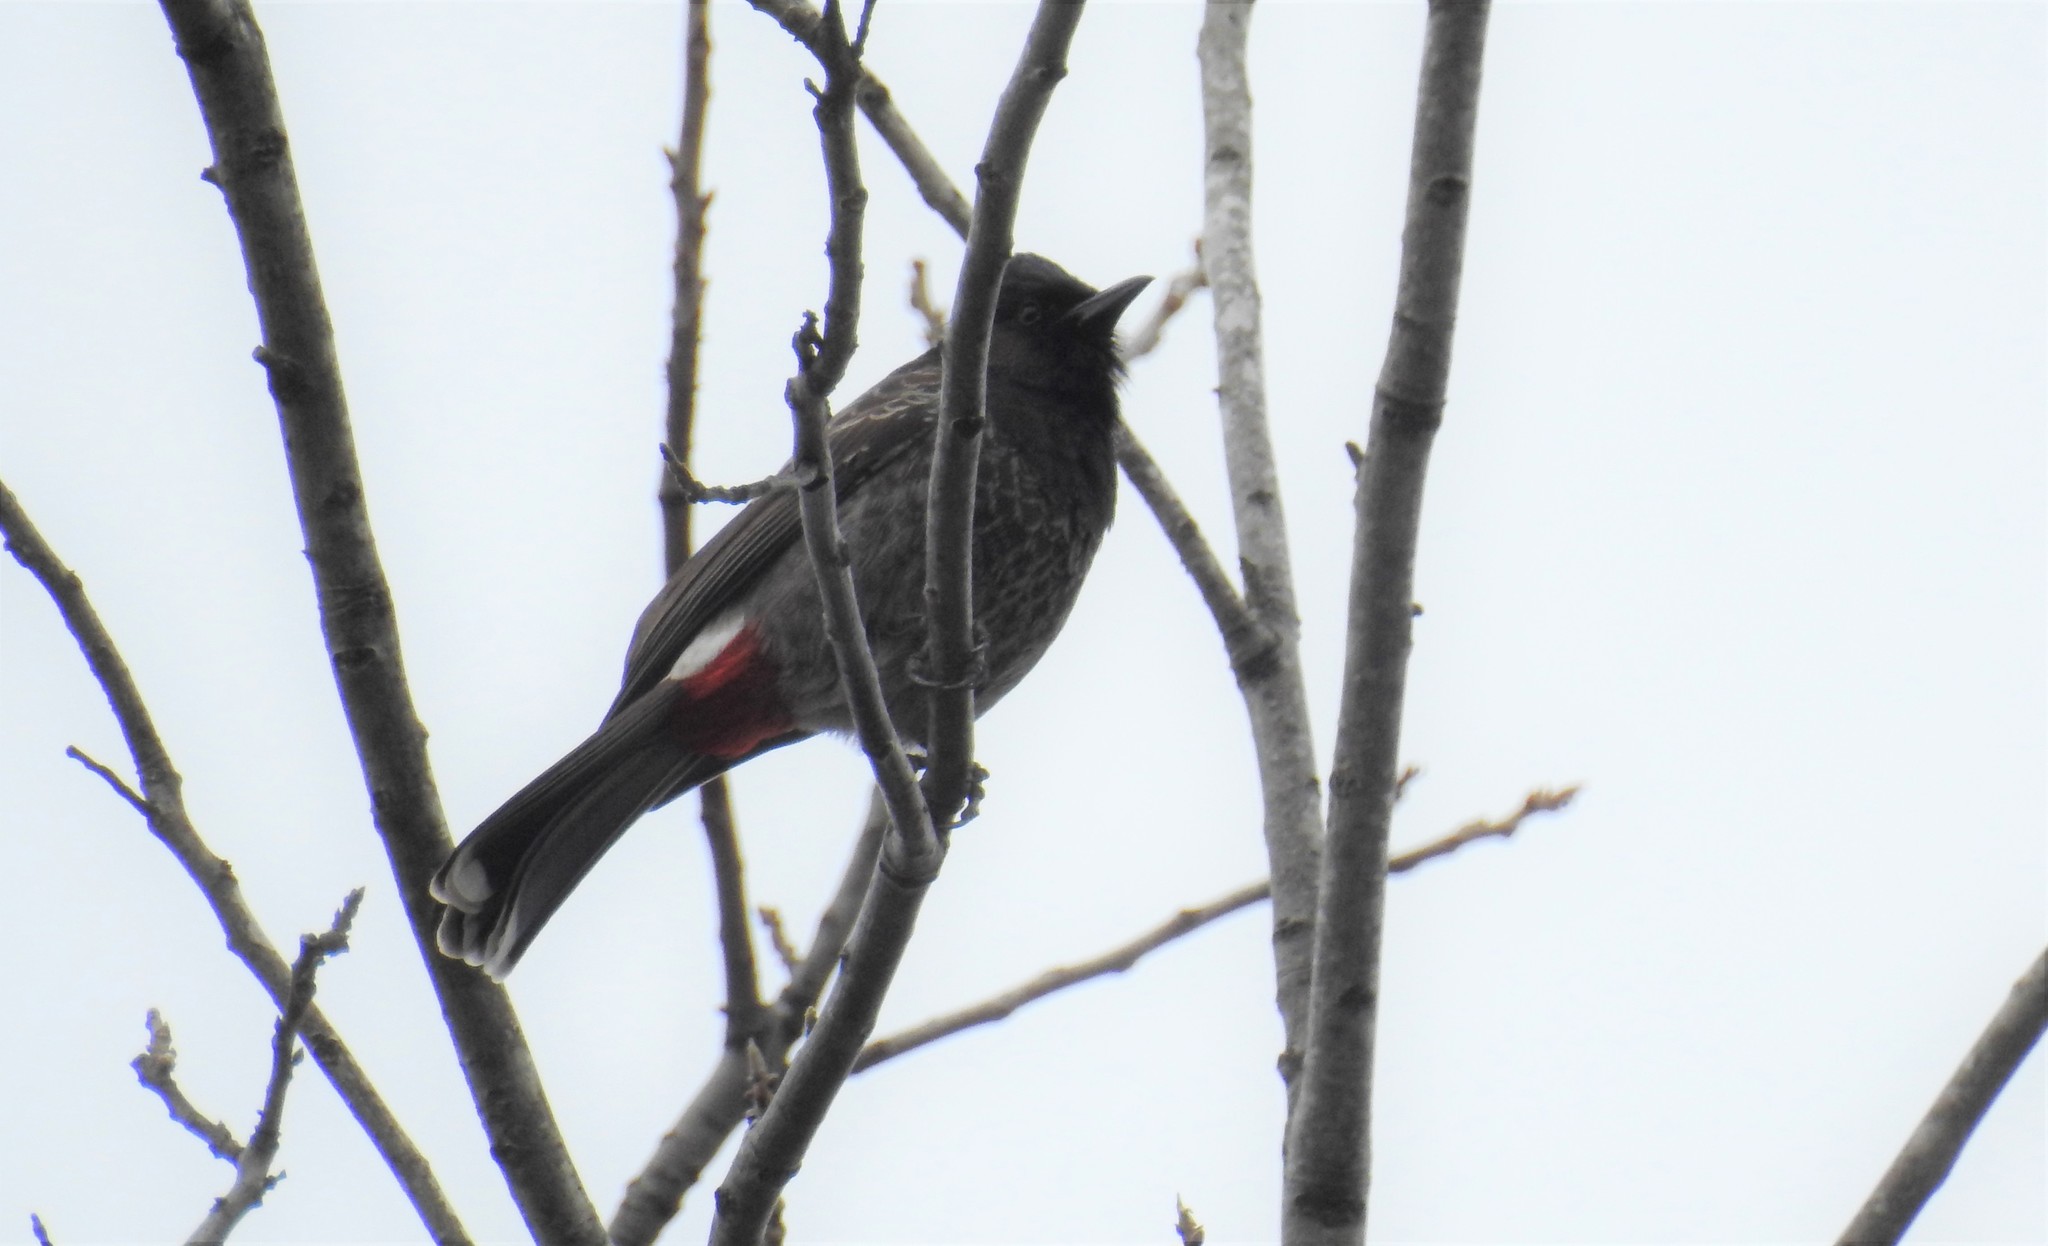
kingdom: Animalia
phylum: Chordata
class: Aves
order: Passeriformes
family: Pycnonotidae
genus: Pycnonotus
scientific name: Pycnonotus cafer
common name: Red-vented bulbul
